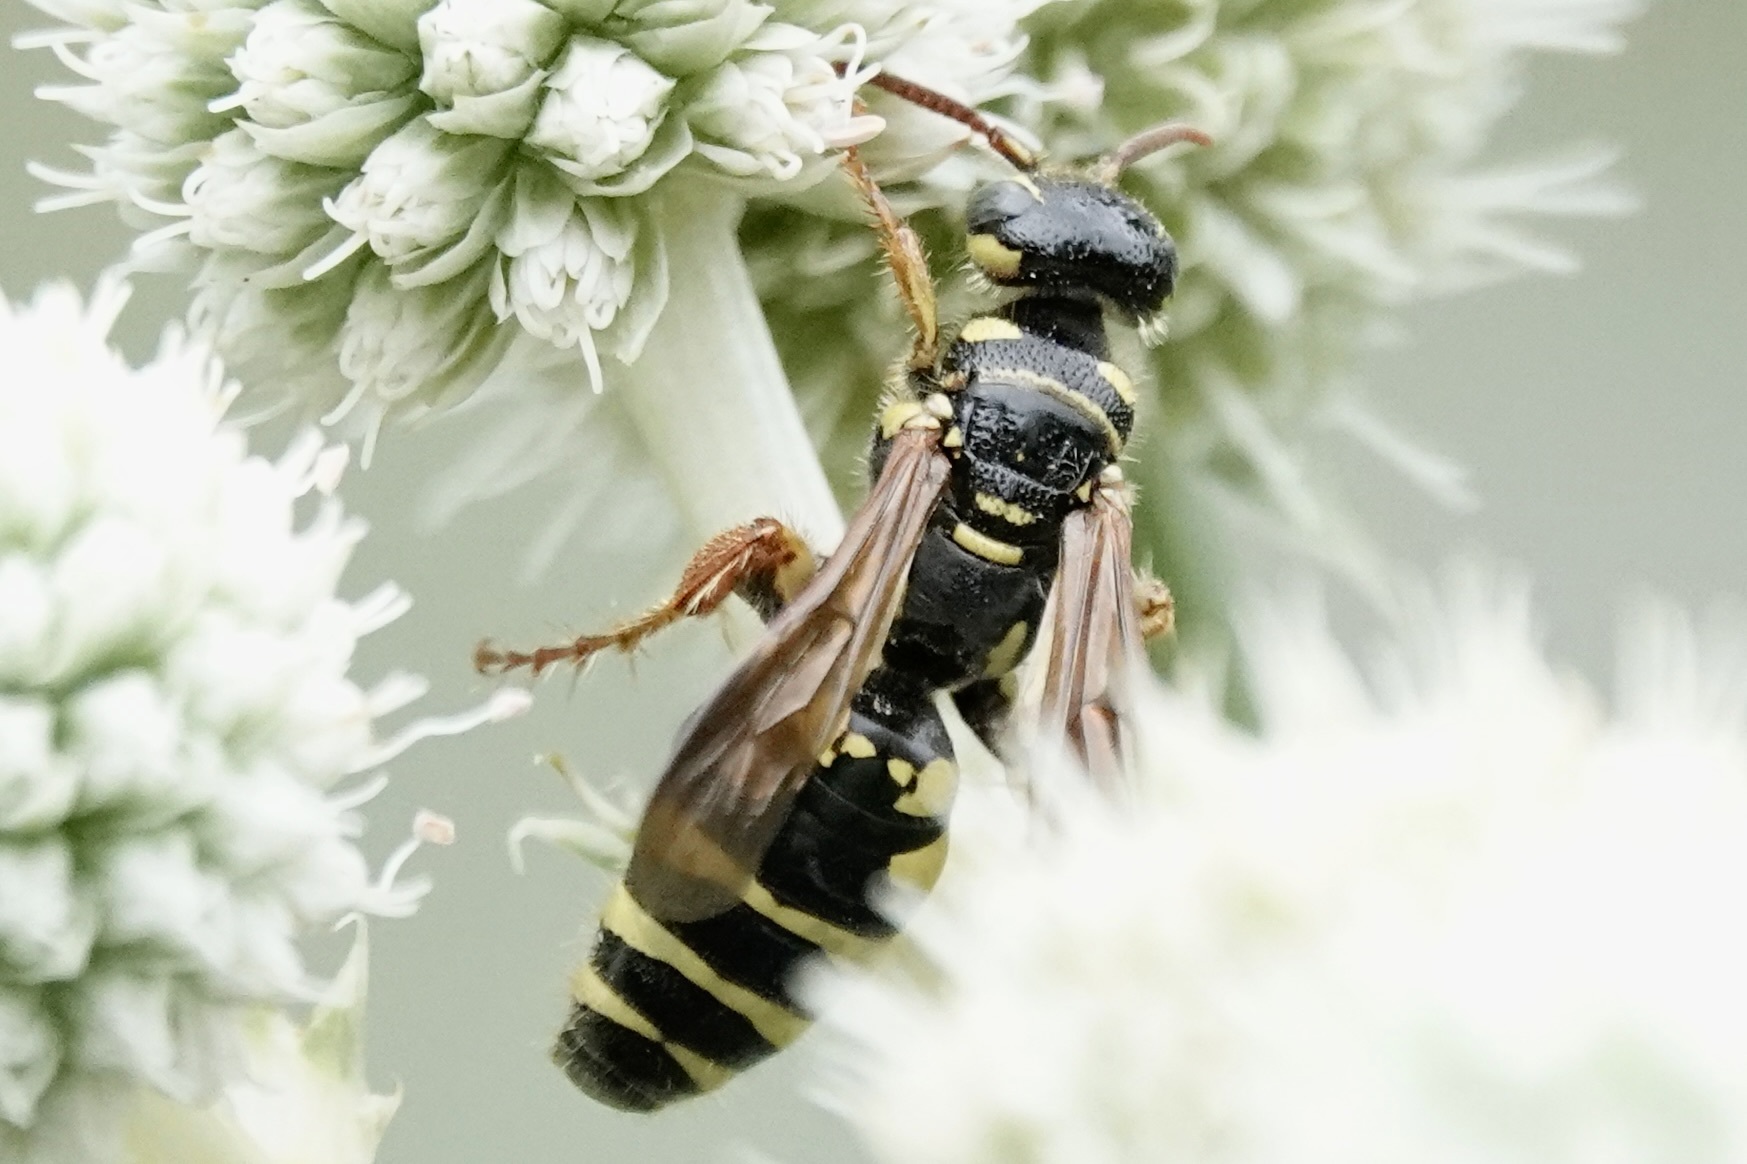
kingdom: Animalia
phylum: Arthropoda
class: Insecta
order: Hymenoptera
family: Tiphiidae
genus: Myzinum
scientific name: Myzinum quinquecinctum
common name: Five-banded thynnid wasp
